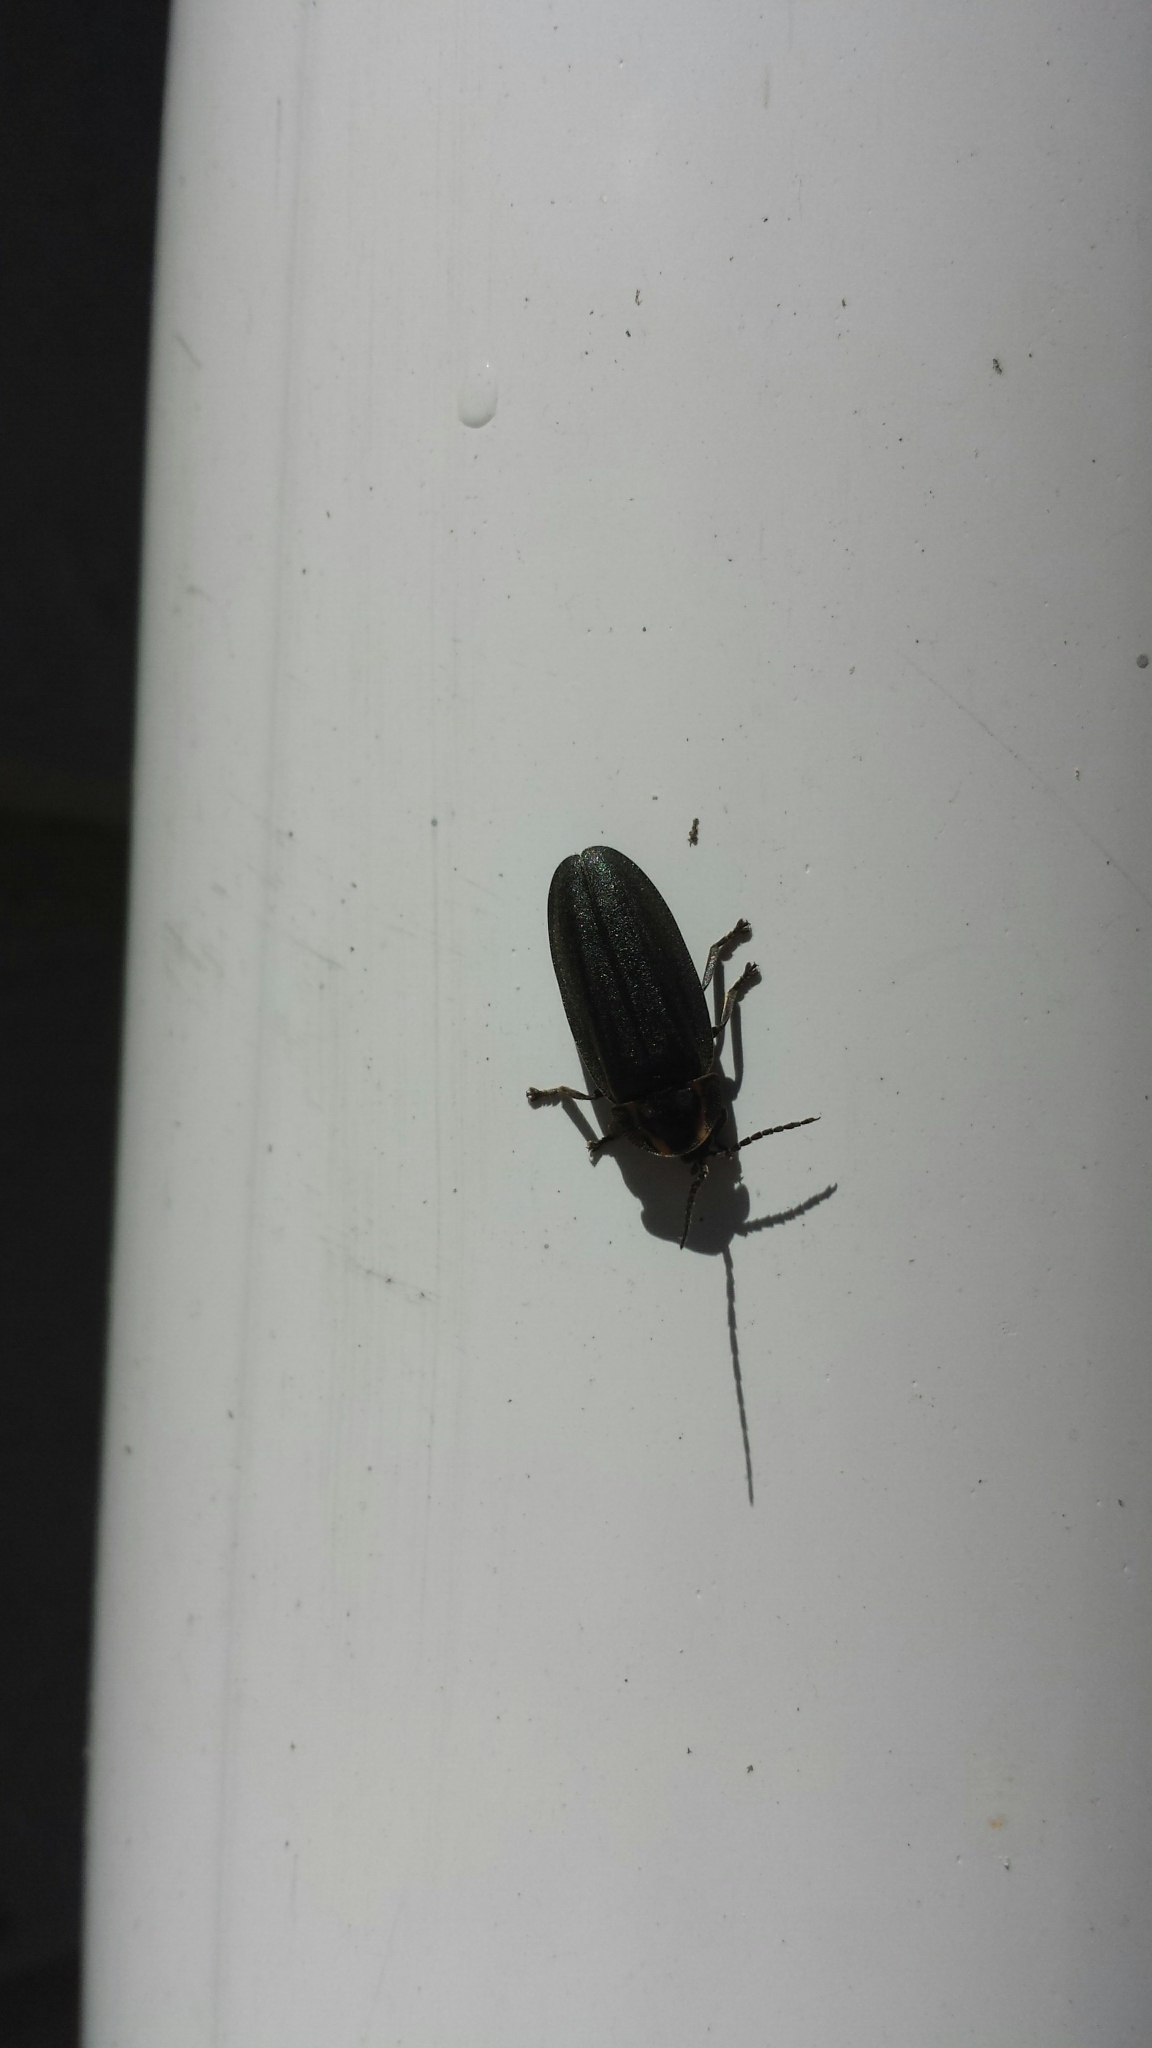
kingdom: Animalia
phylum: Arthropoda
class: Insecta
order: Coleoptera
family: Lampyridae
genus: Photinus
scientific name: Photinus corrusca
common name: Winter firefly
